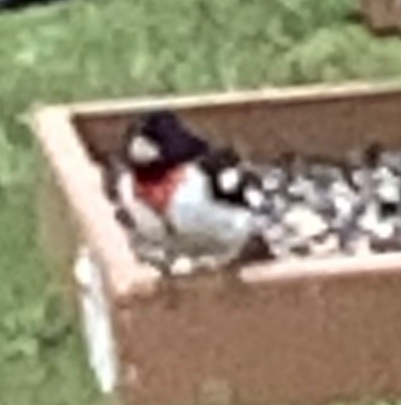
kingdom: Animalia
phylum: Chordata
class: Aves
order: Passeriformes
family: Cardinalidae
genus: Pheucticus
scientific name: Pheucticus ludovicianus
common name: Rose-breasted grosbeak
